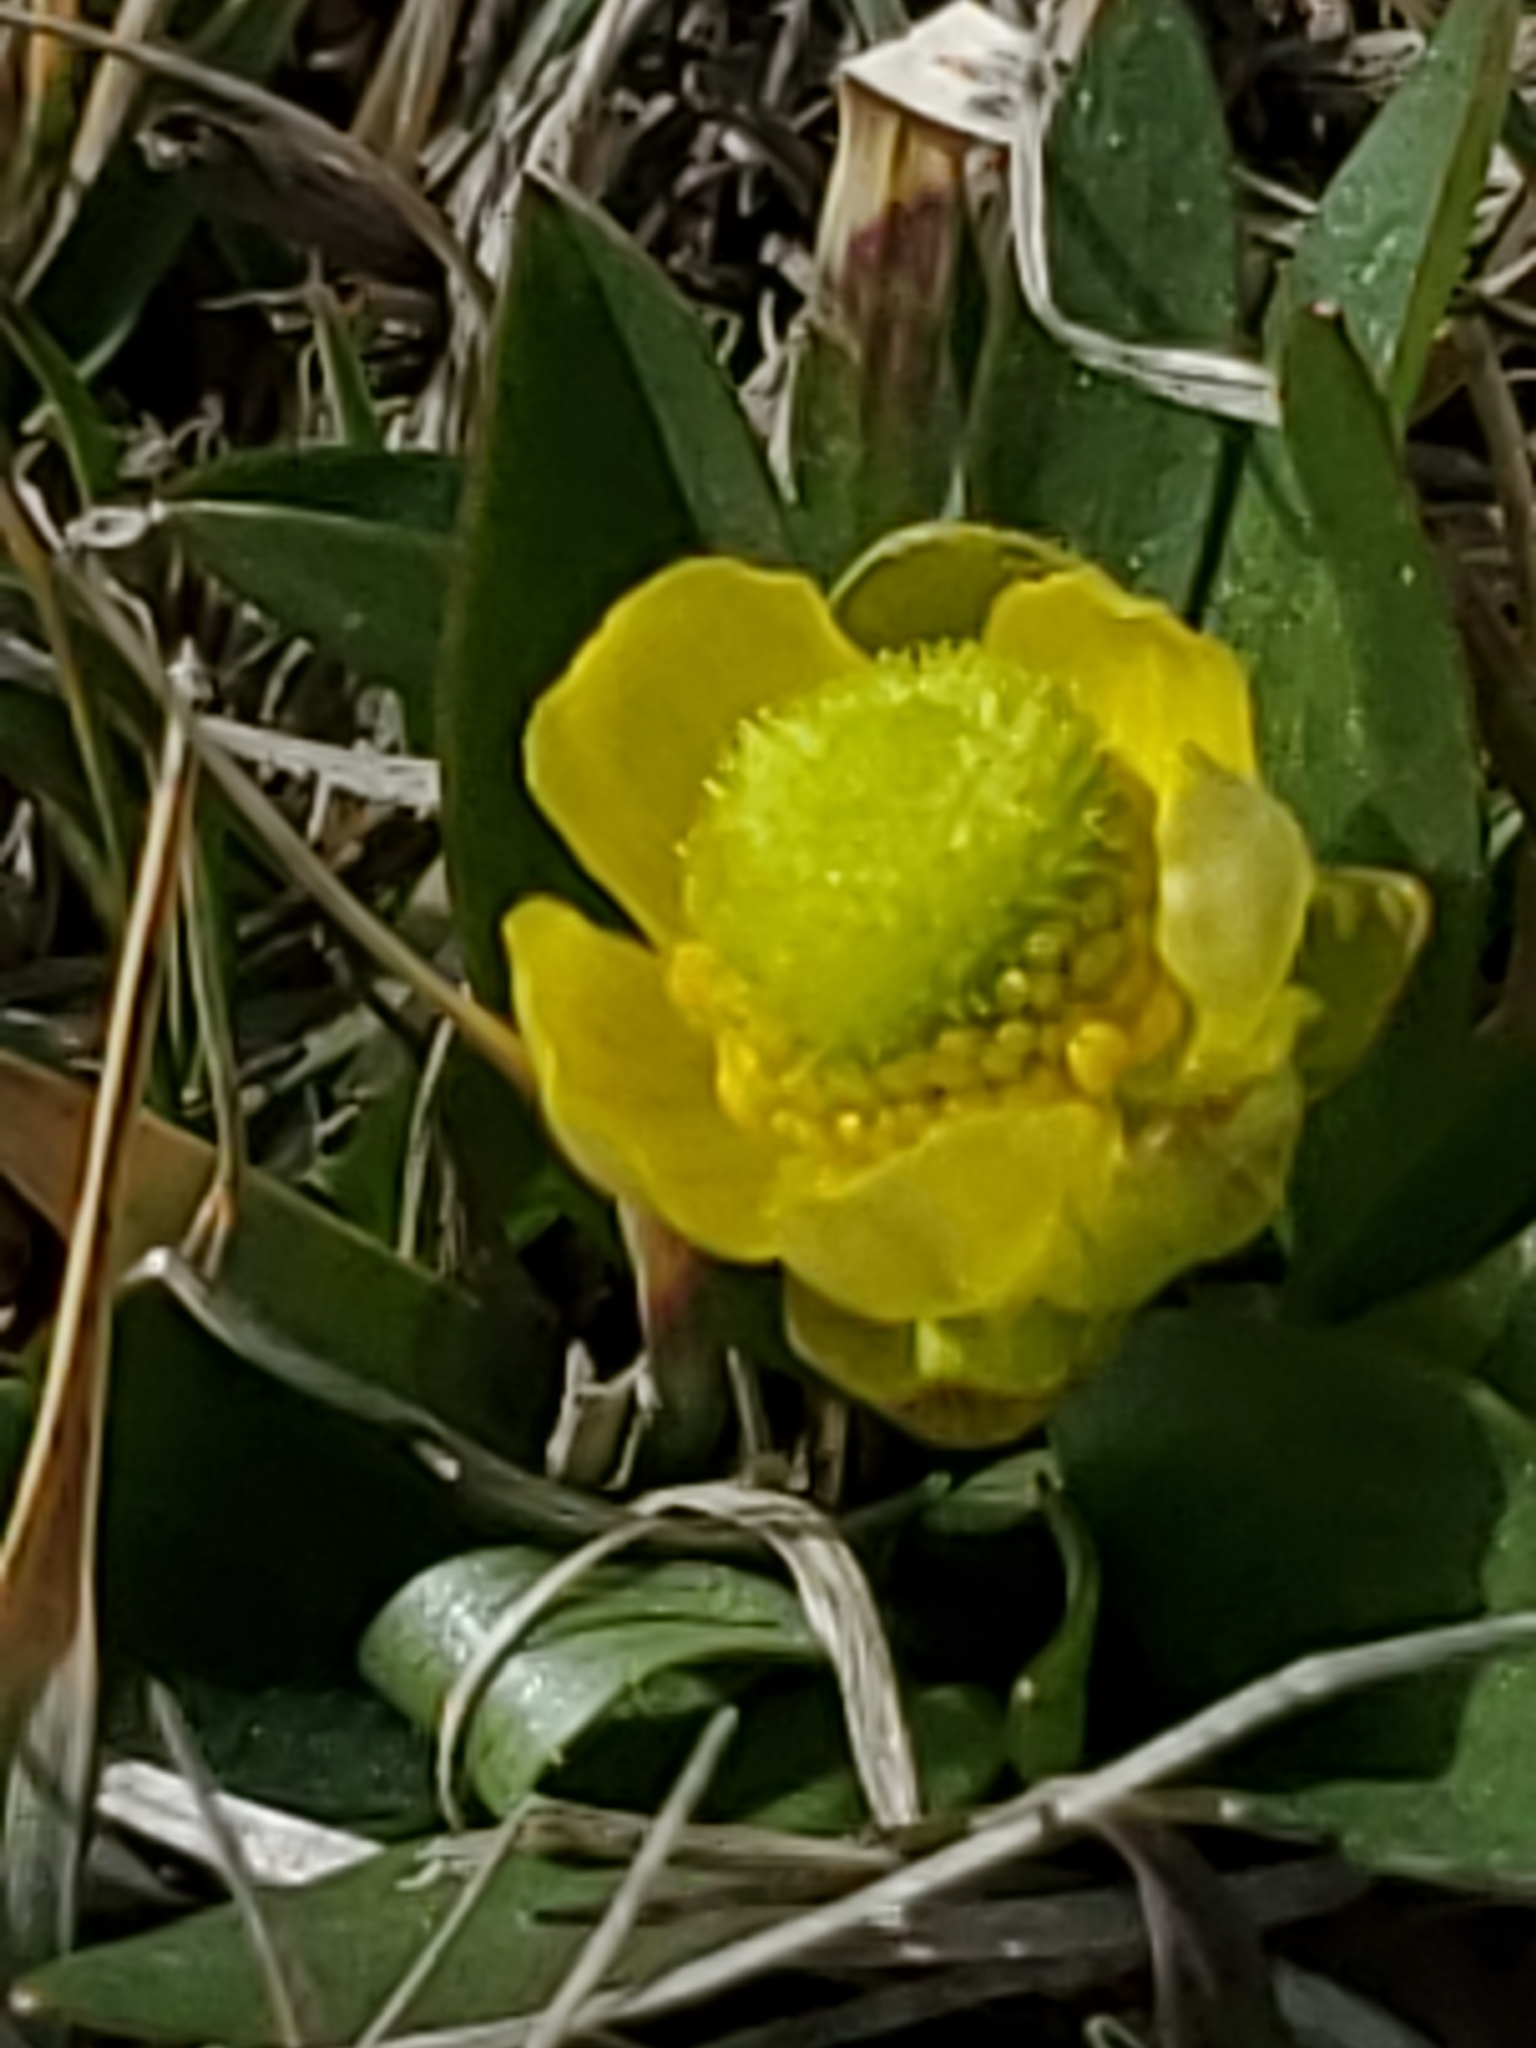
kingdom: Plantae
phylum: Tracheophyta
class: Magnoliopsida
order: Ranunculales
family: Ranunculaceae
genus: Ranunculus
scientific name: Ranunculus glaberrimus
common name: Sagebrush buttercup
